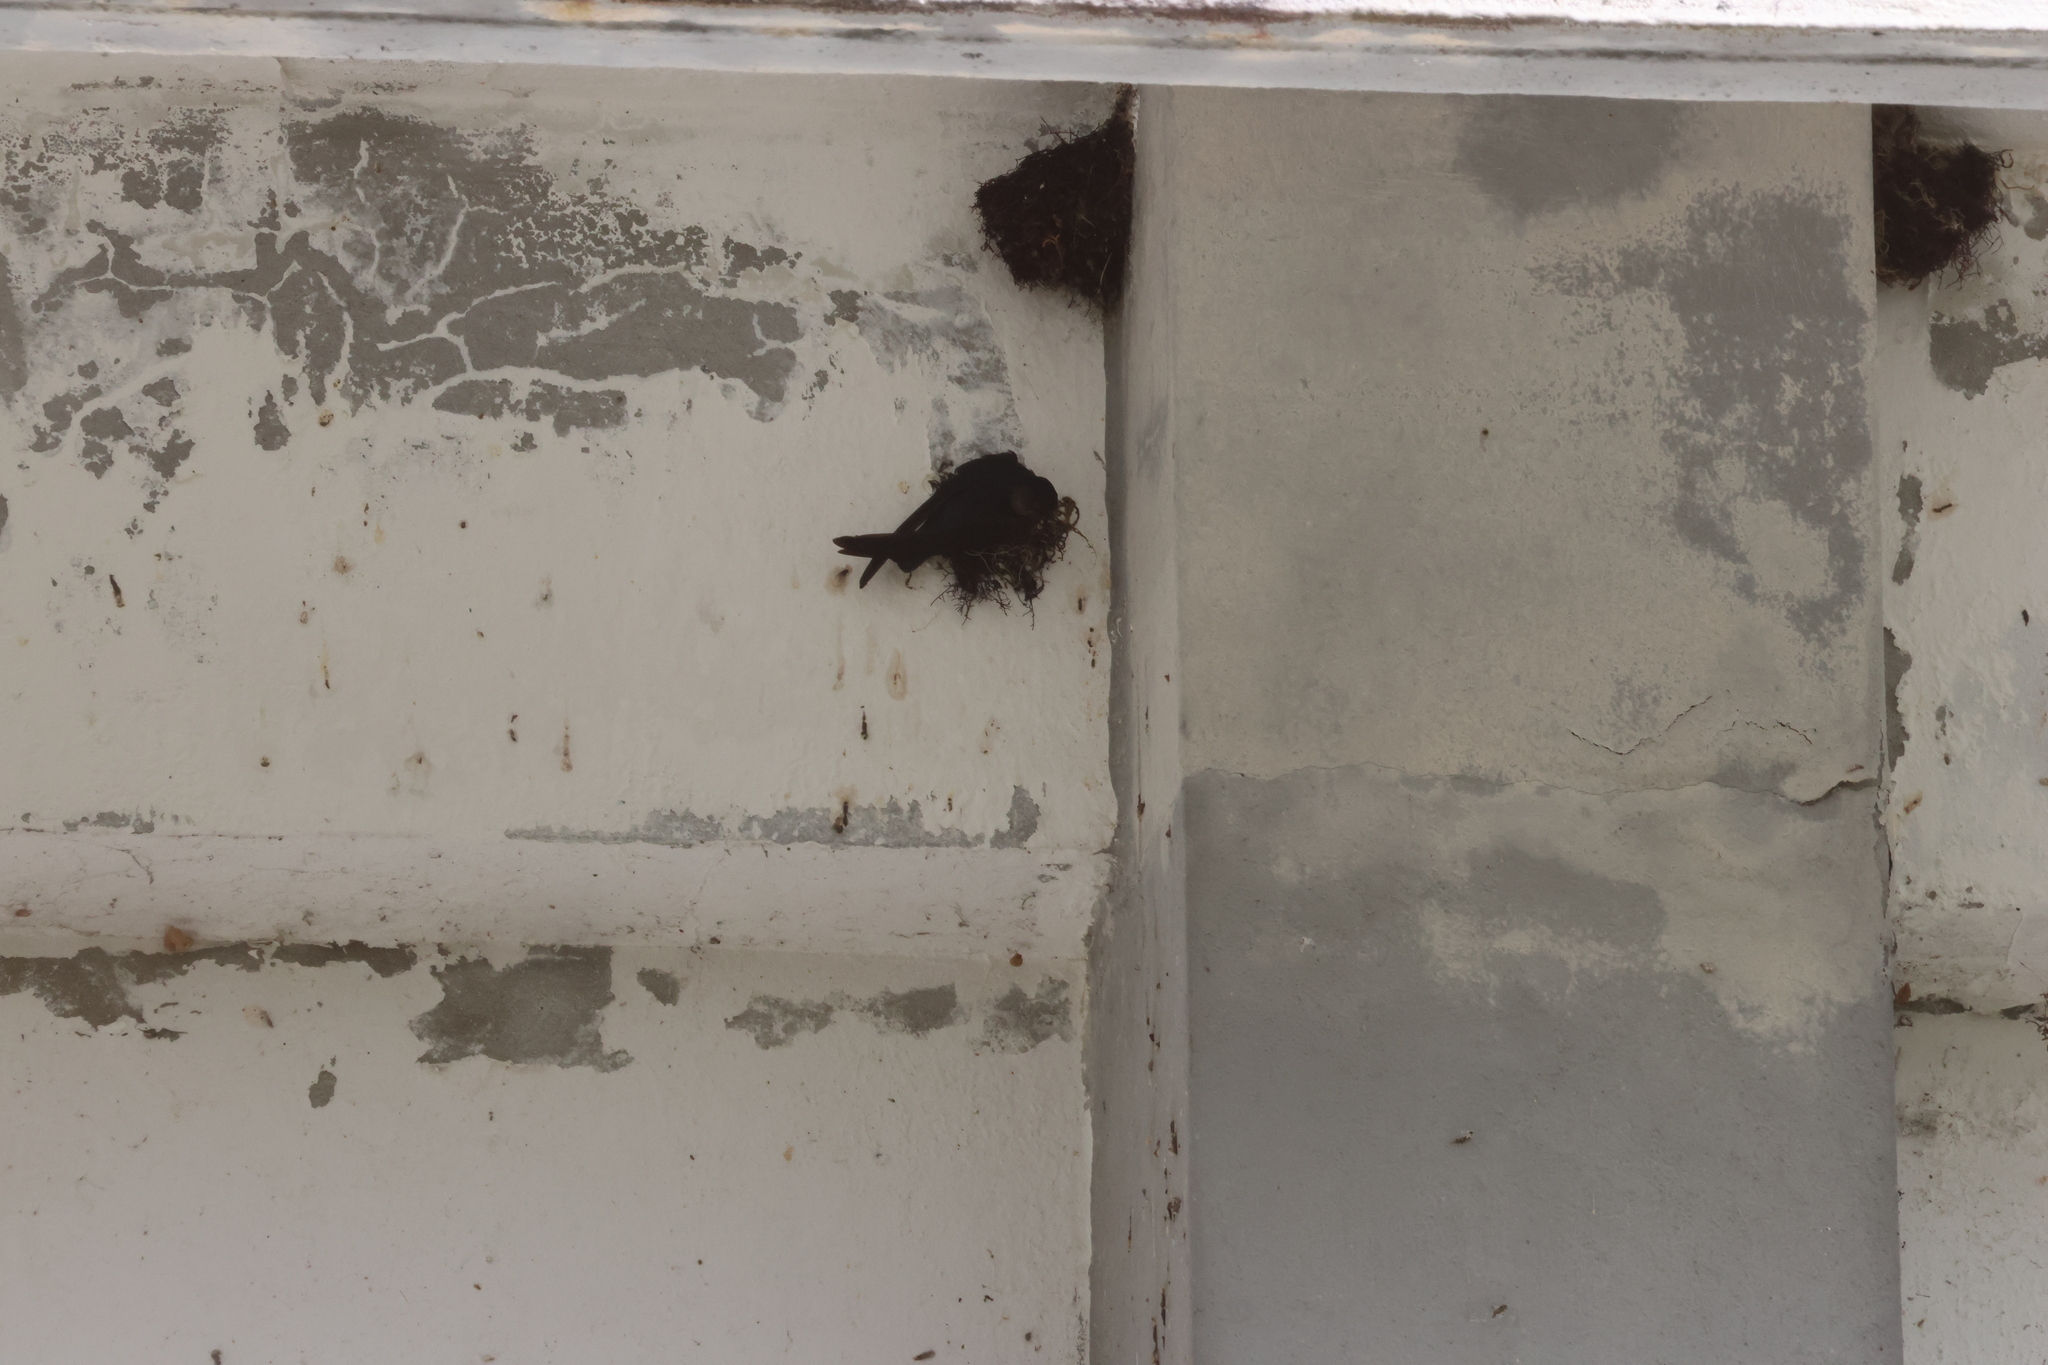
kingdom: Animalia
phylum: Chordata
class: Aves
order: Apodiformes
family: Apodidae
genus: Collocalia
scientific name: Collocalia affinis
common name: Plume-toed swiftlet
